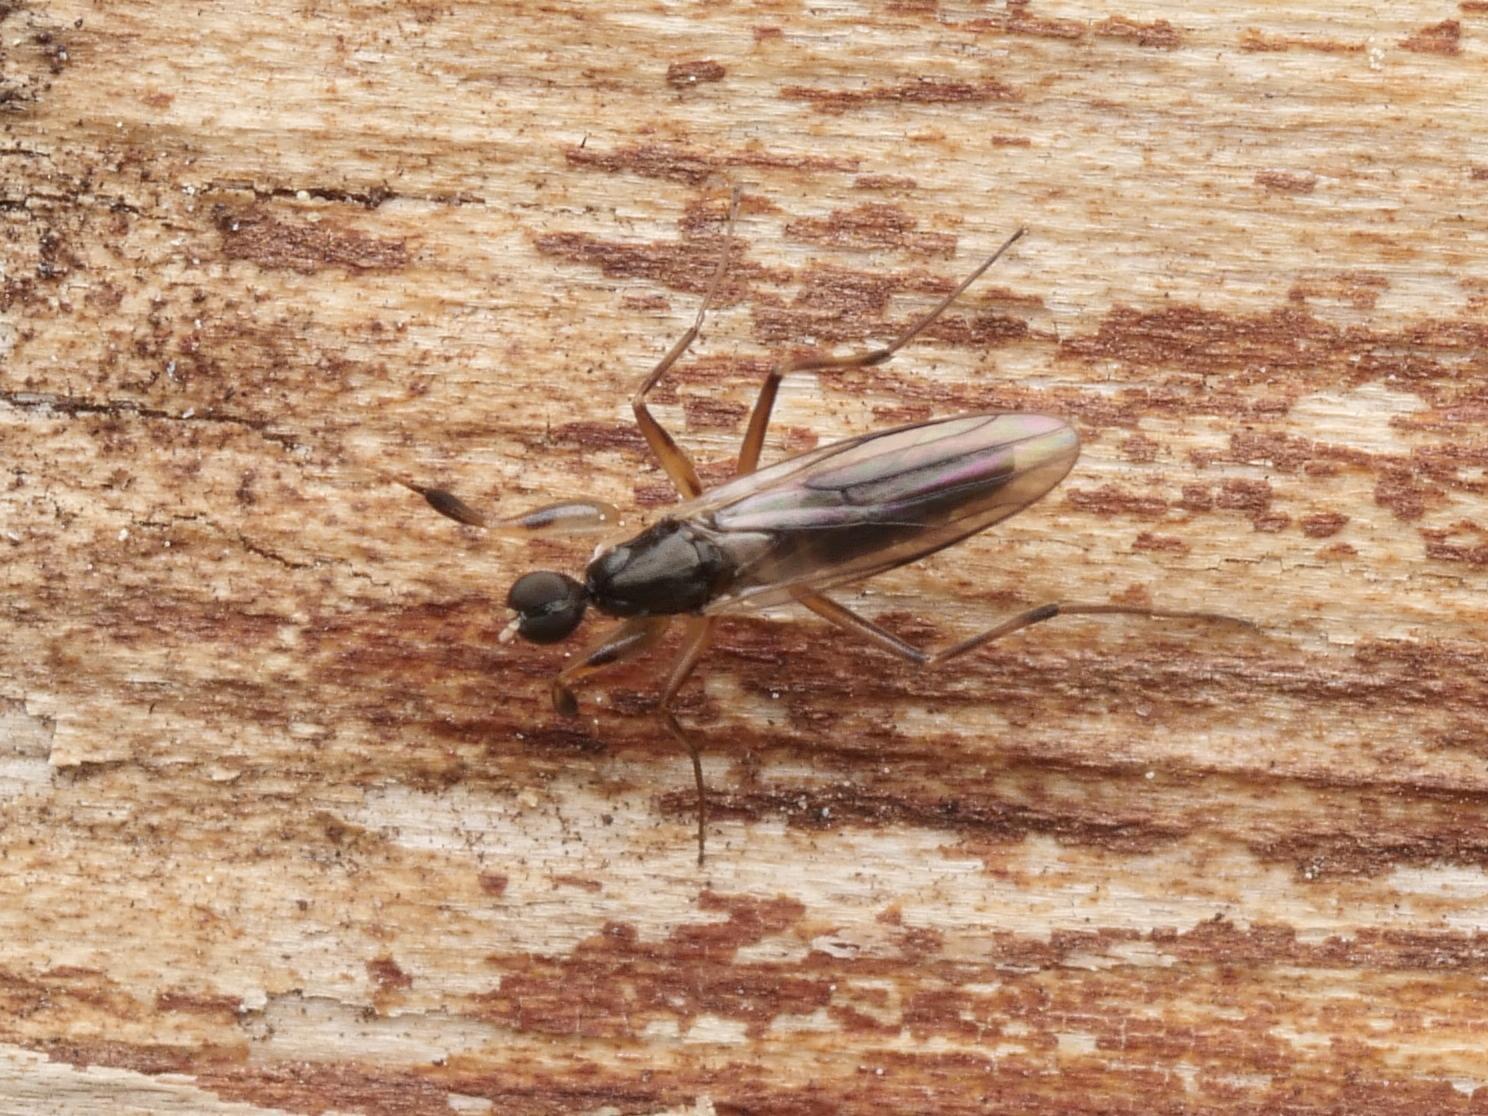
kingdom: Animalia
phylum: Arthropoda
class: Insecta
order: Diptera
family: Hybotidae
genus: Tachypeza
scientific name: Tachypeza nubila
